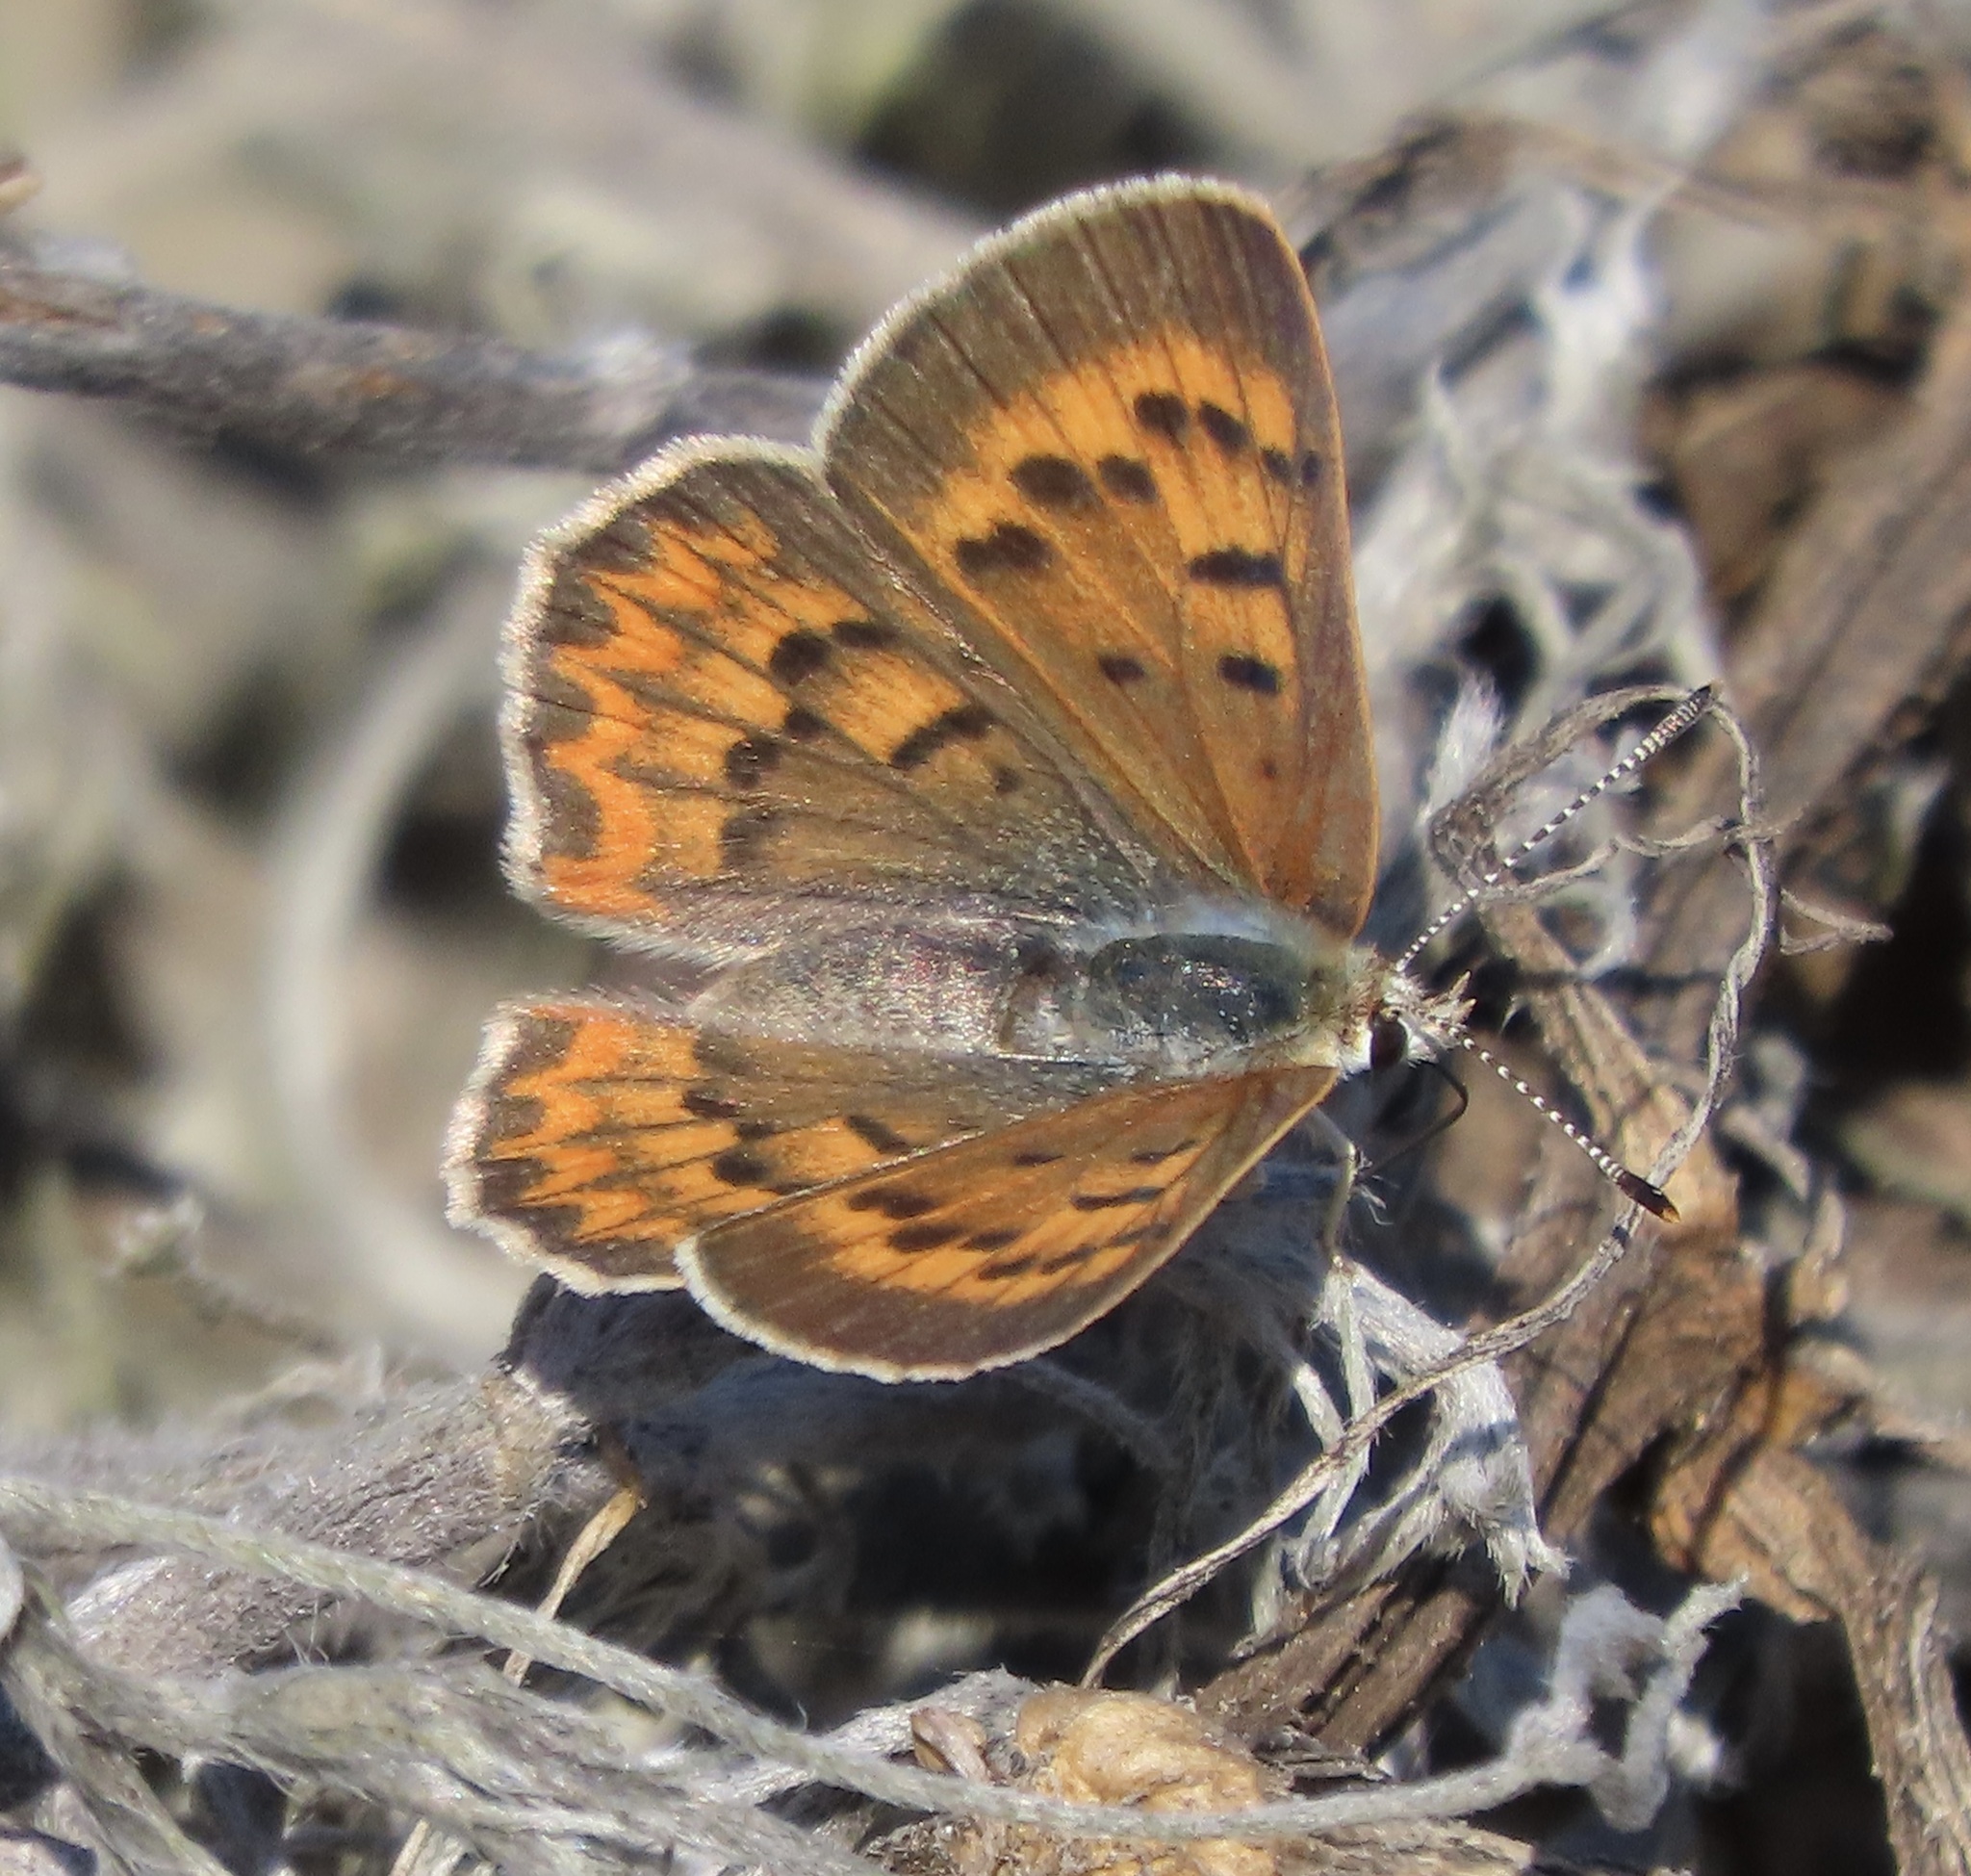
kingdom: Animalia
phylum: Arthropoda
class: Insecta
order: Lepidoptera
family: Lycaenidae
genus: Tharsalea
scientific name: Tharsalea helloides
